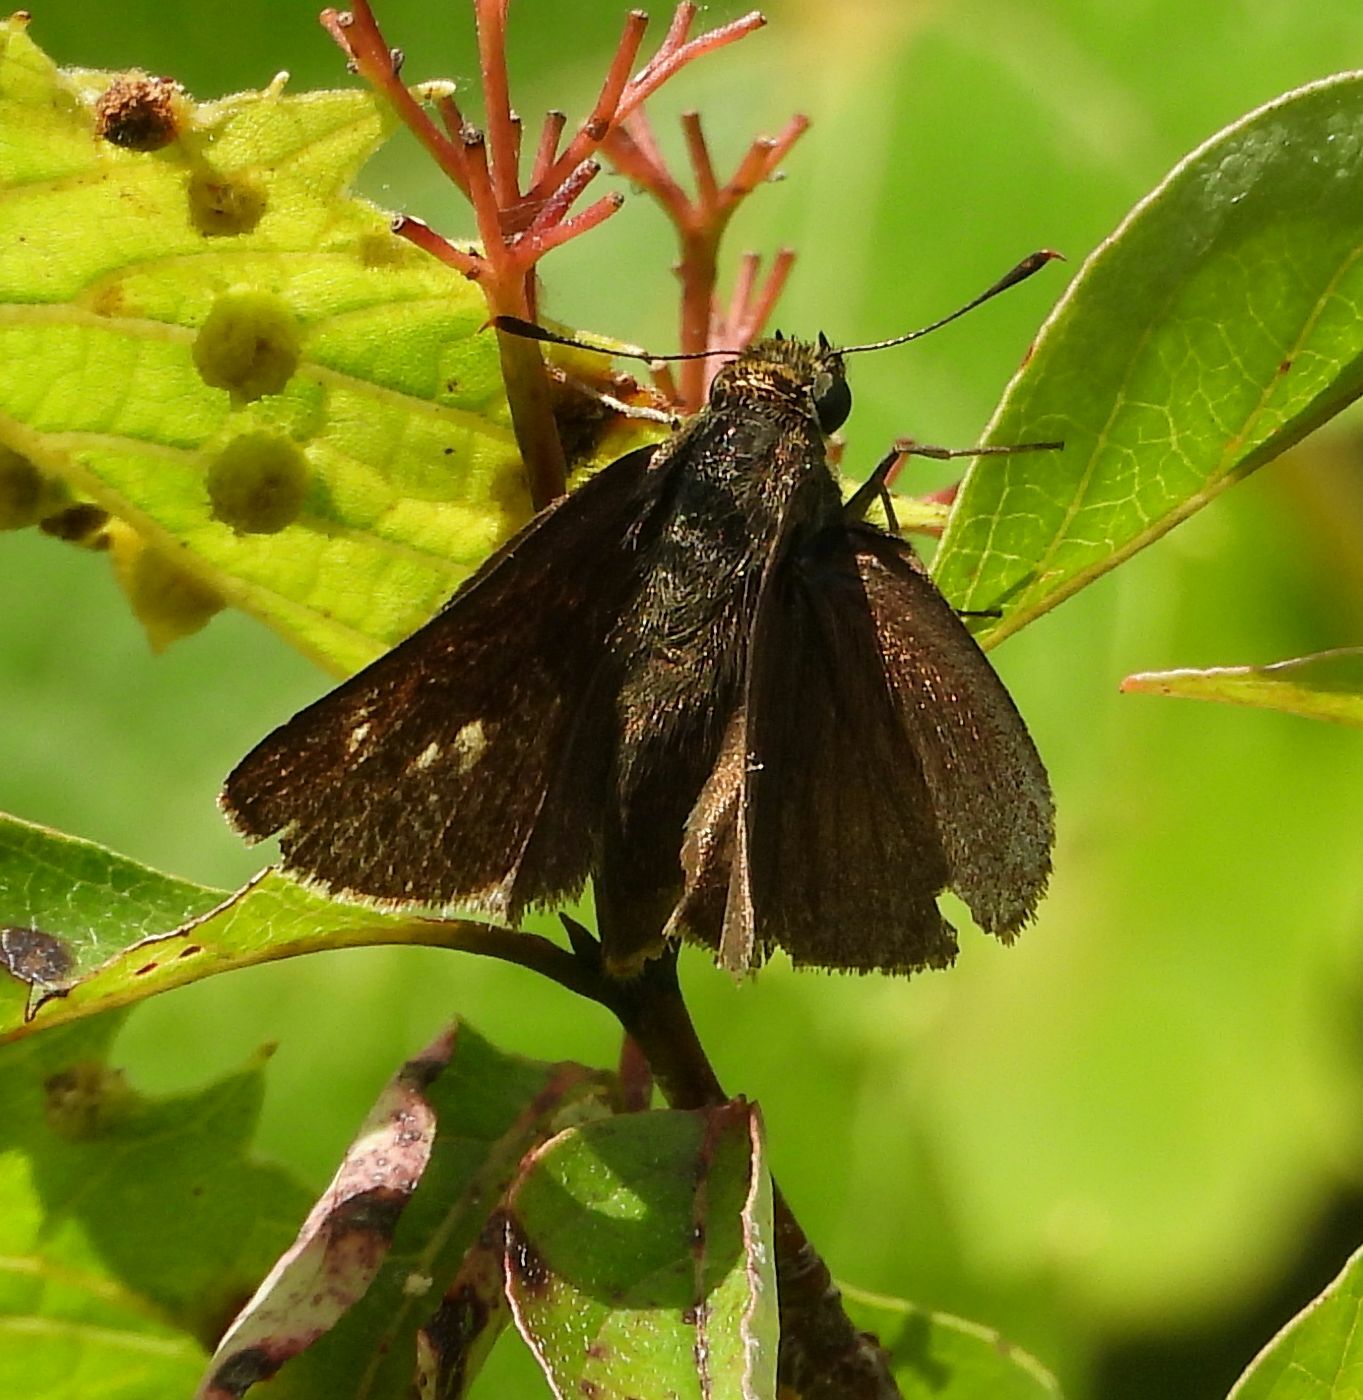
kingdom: Animalia
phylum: Arthropoda
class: Insecta
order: Lepidoptera
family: Hesperiidae
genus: Euphyes
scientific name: Euphyes vestris
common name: Dun skipper
